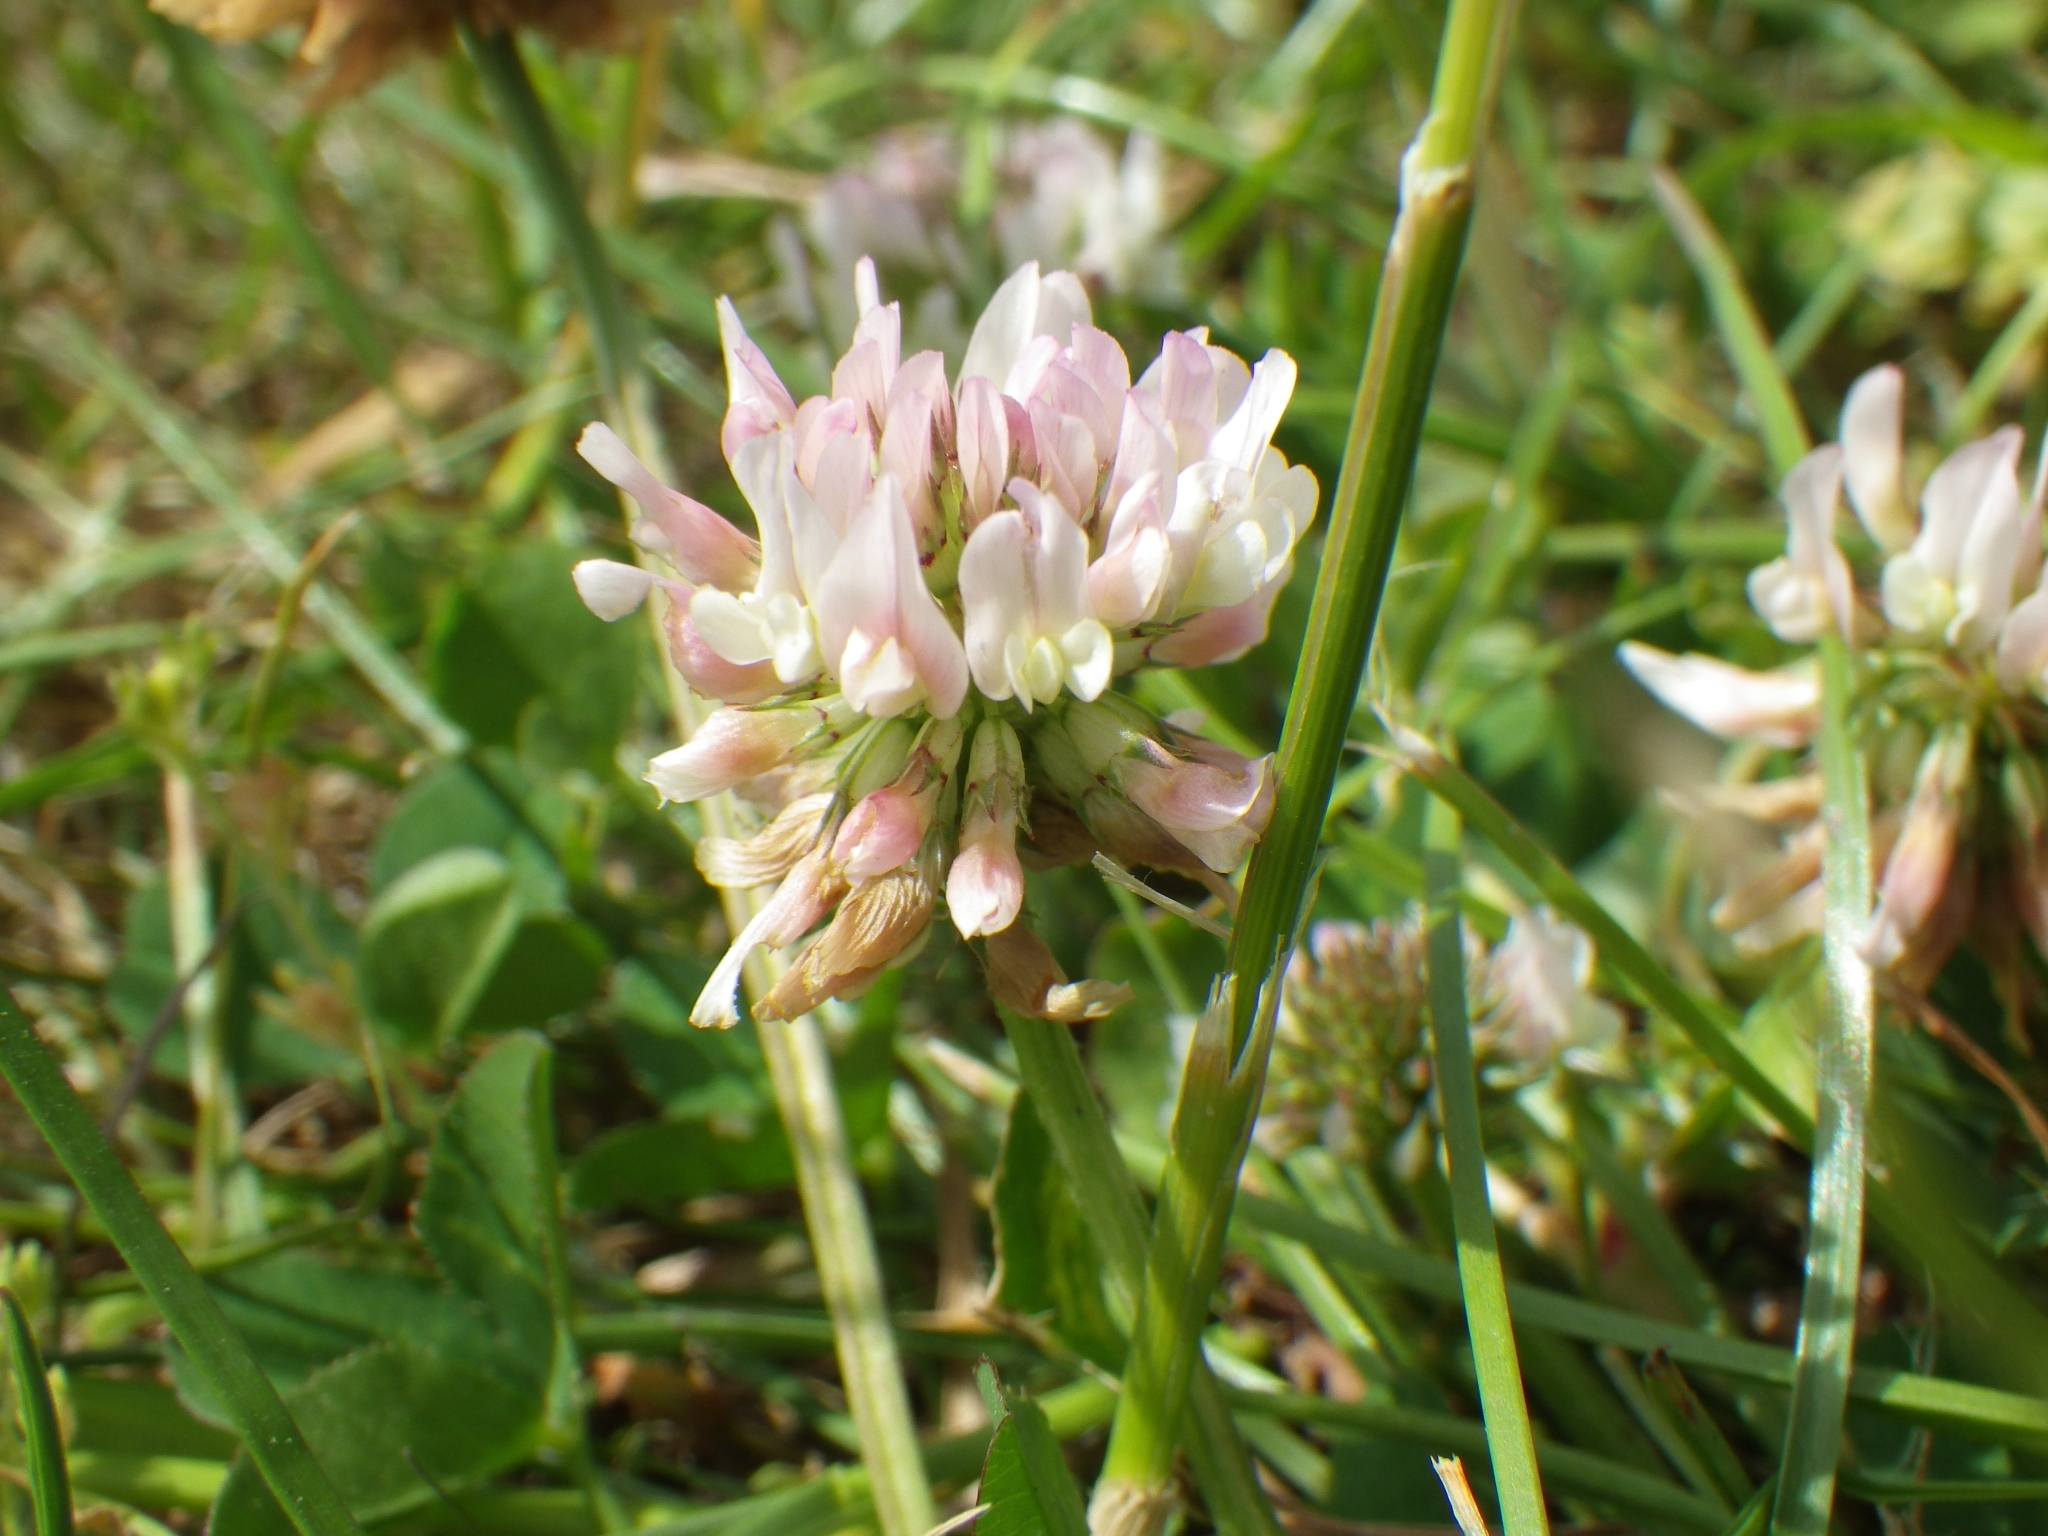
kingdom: Plantae
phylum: Tracheophyta
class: Magnoliopsida
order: Fabales
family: Fabaceae
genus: Trifolium
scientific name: Trifolium repens
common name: White clover
